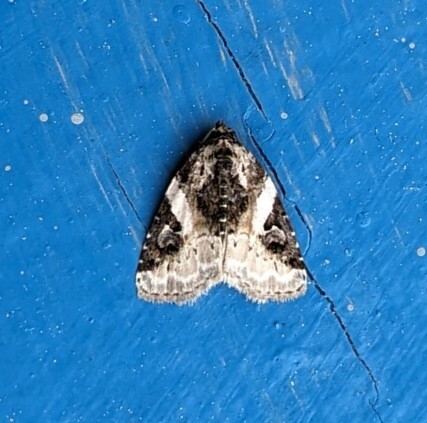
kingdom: Animalia
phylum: Arthropoda
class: Insecta
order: Lepidoptera
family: Noctuidae
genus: Pseudeustrotia
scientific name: Pseudeustrotia carneola
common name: Pink-barred lithacodia moth
